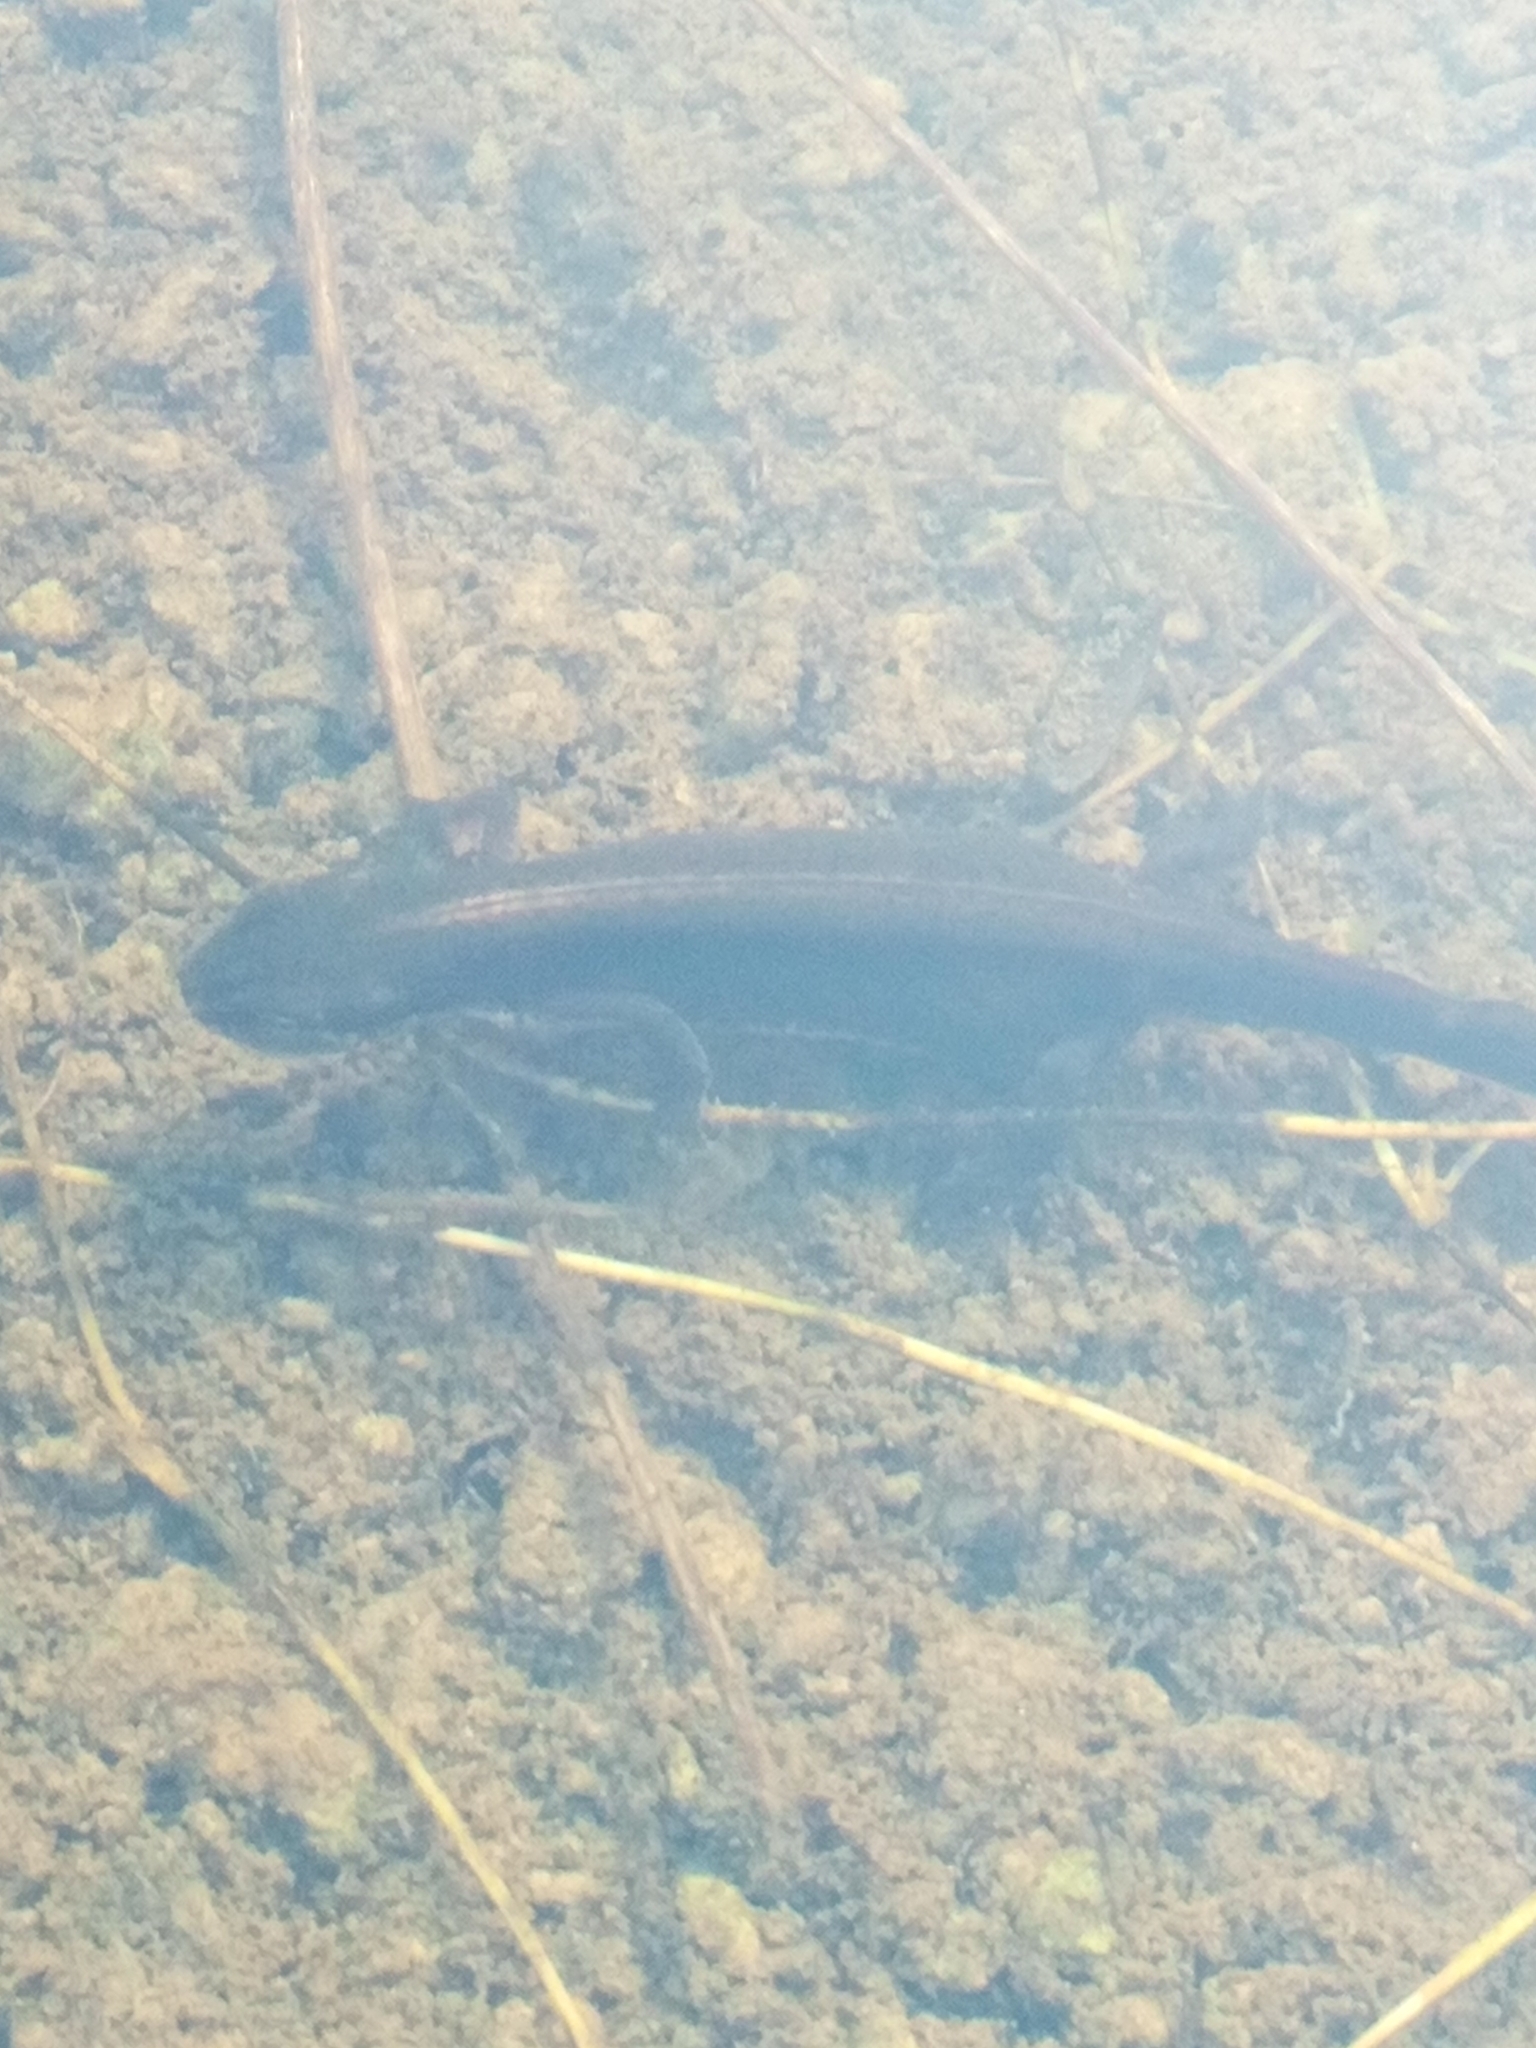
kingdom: Animalia
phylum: Chordata
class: Amphibia
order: Caudata
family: Salamandridae
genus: Lissotriton
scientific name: Lissotriton vulgaris
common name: Smooth newt
